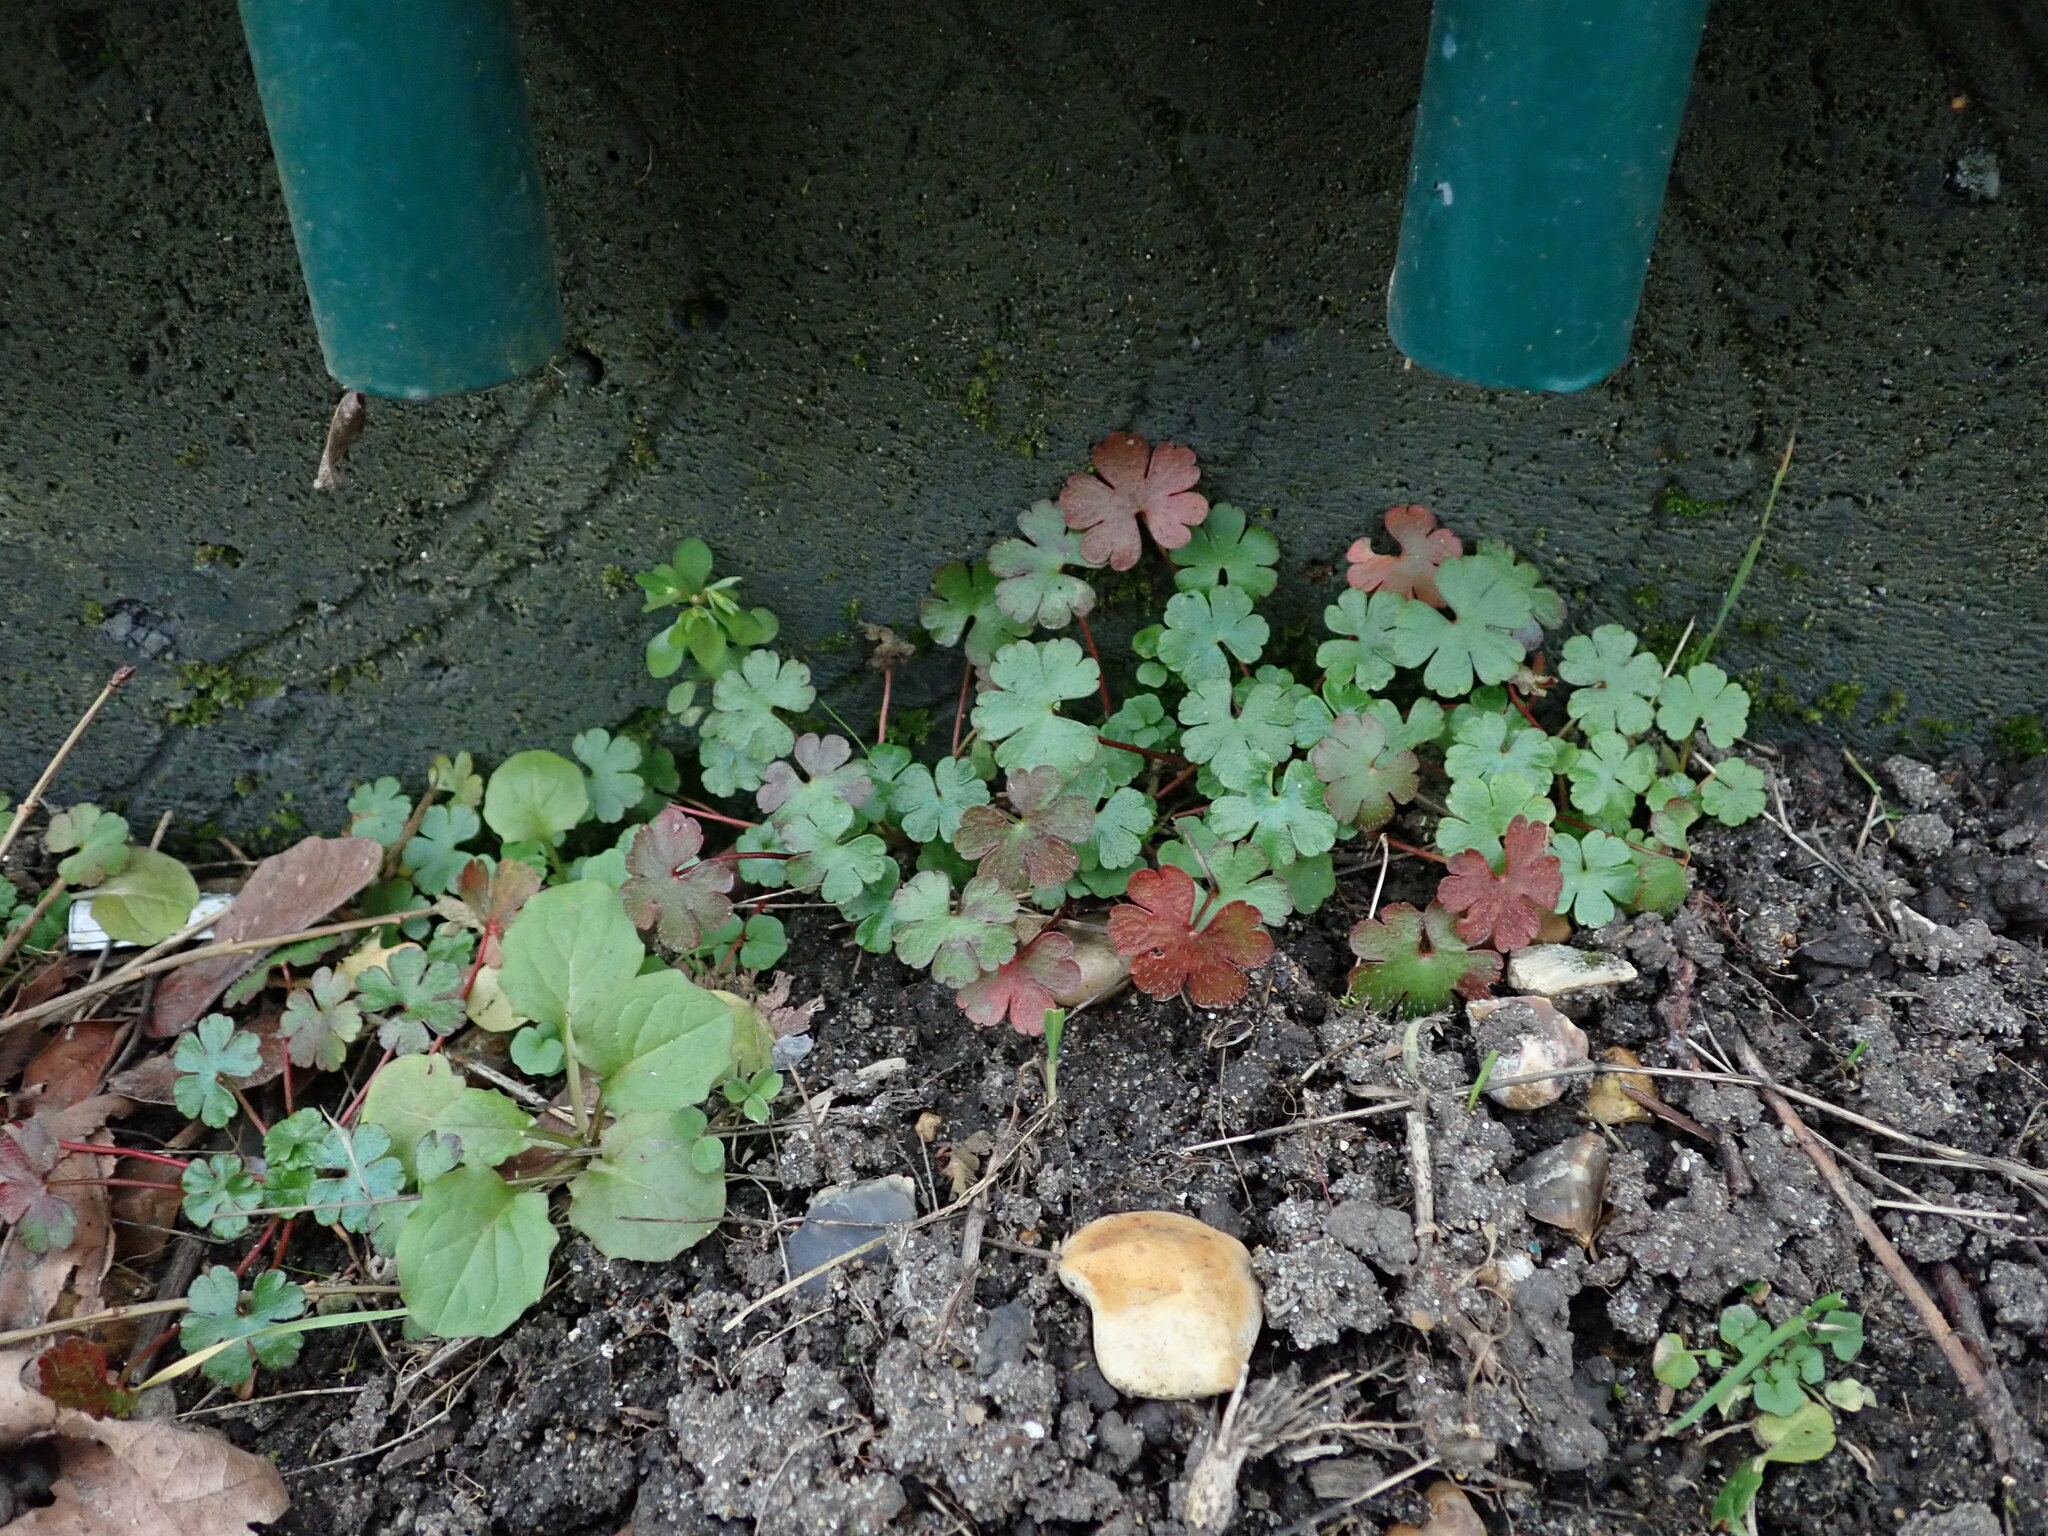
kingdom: Plantae
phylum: Tracheophyta
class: Magnoliopsida
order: Geraniales
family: Geraniaceae
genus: Geranium
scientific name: Geranium lucidum
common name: Shining crane's-bill
